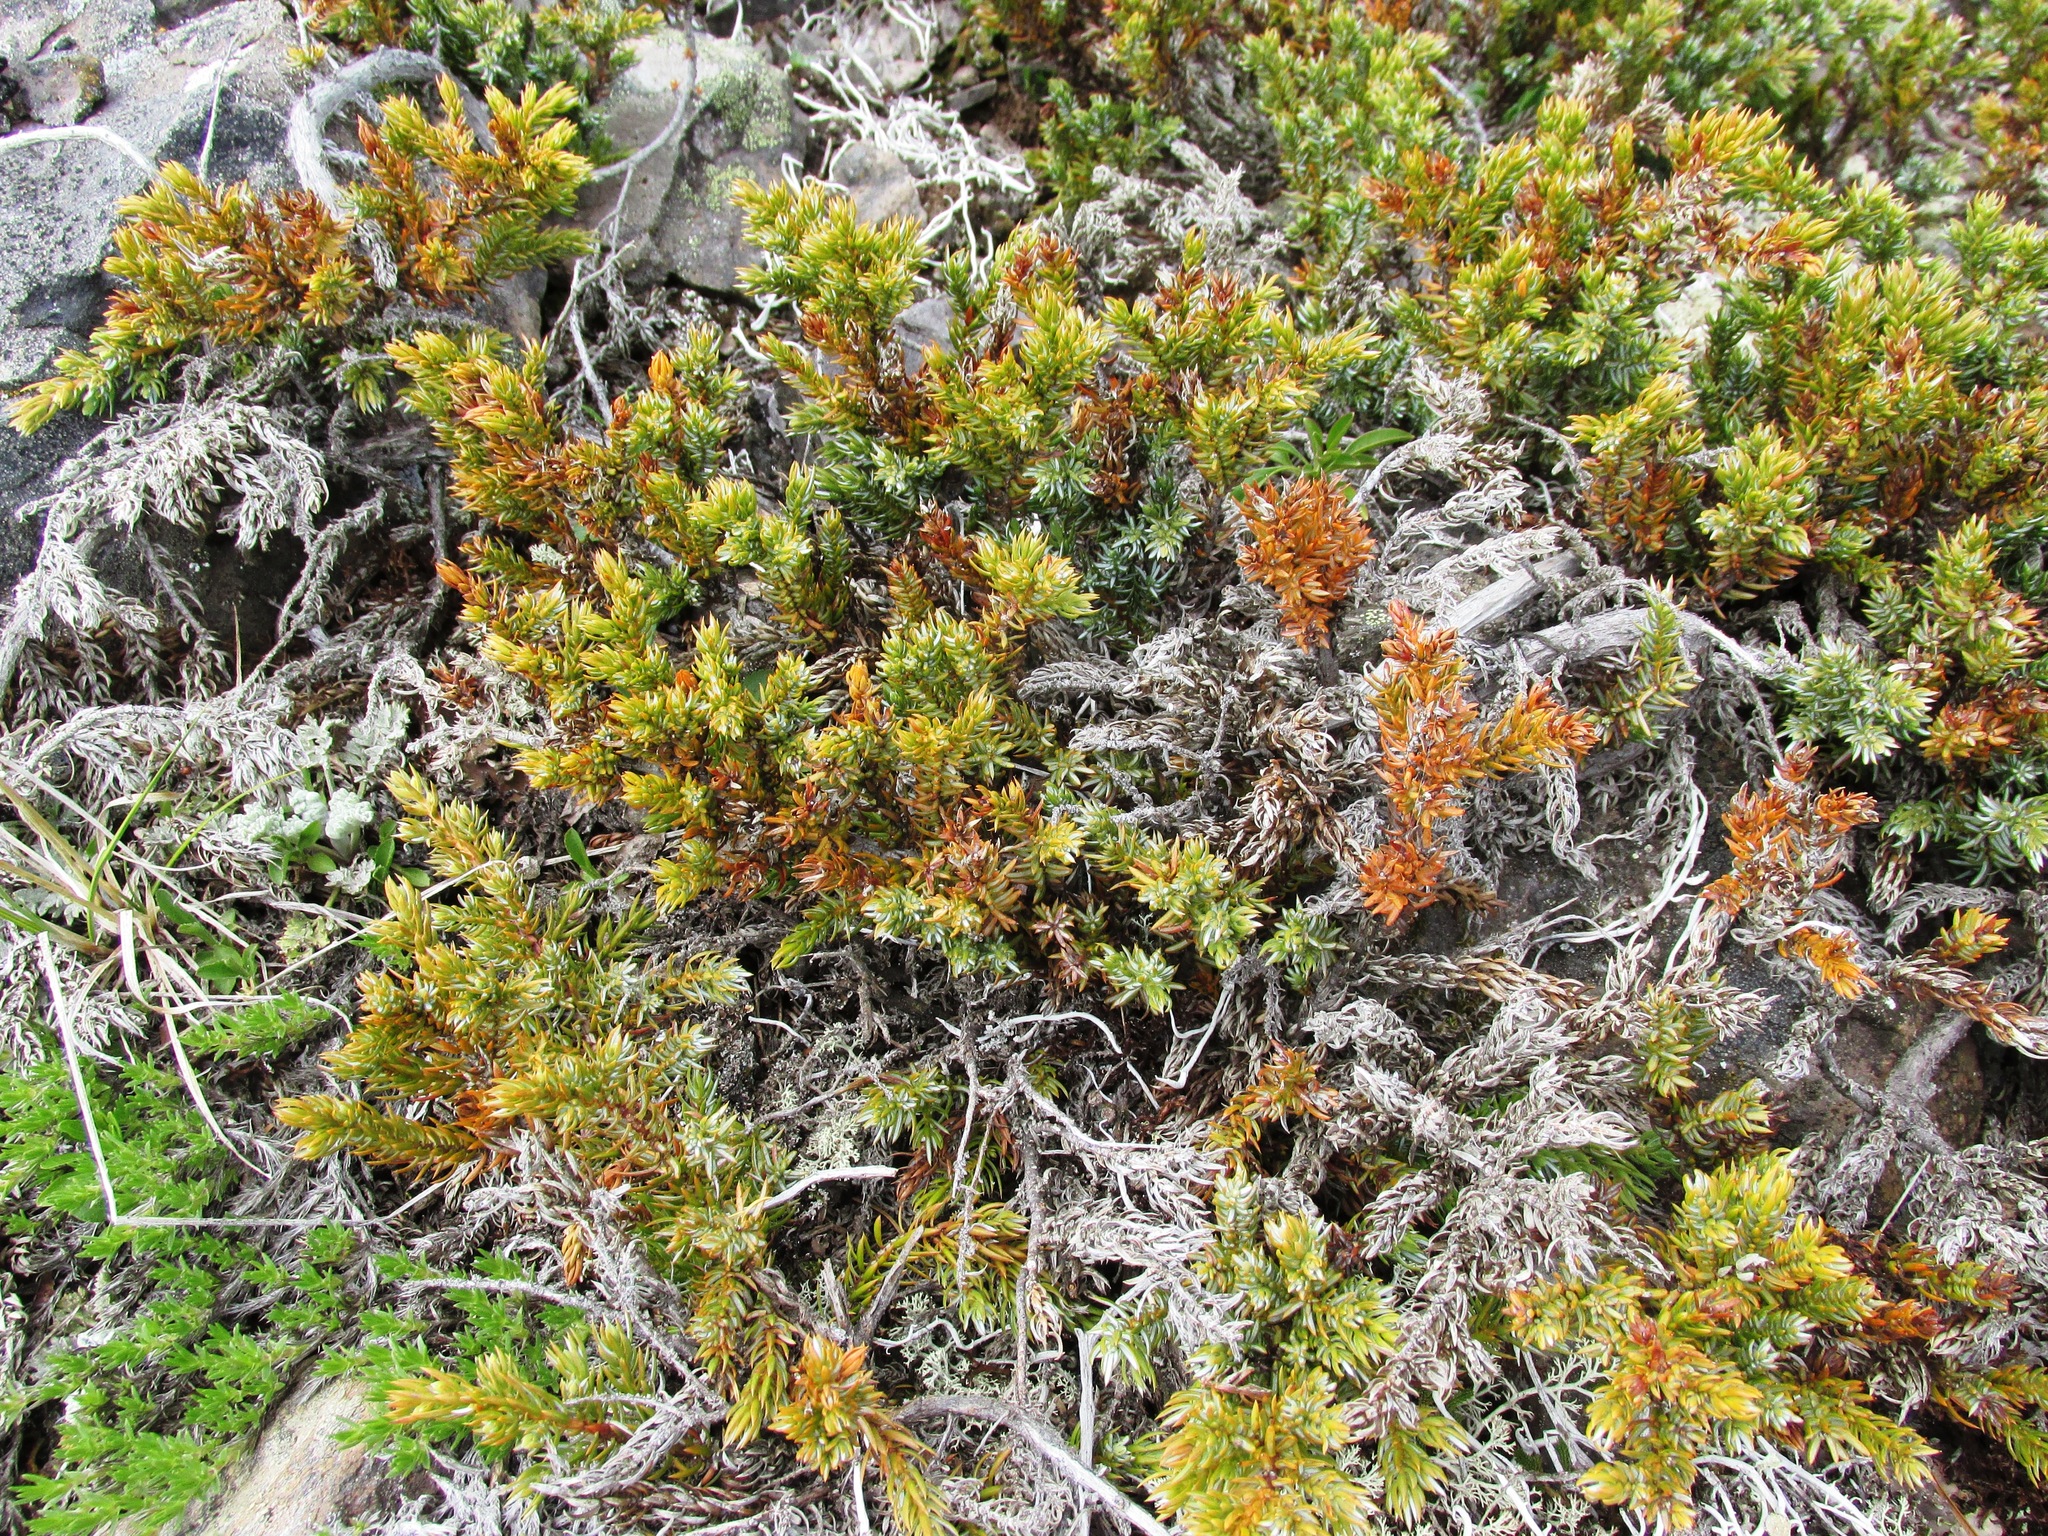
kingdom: Plantae
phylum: Tracheophyta
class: Pinopsida
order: Pinales
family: Cupressaceae
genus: Juniperus
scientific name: Juniperus communis
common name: Common juniper
